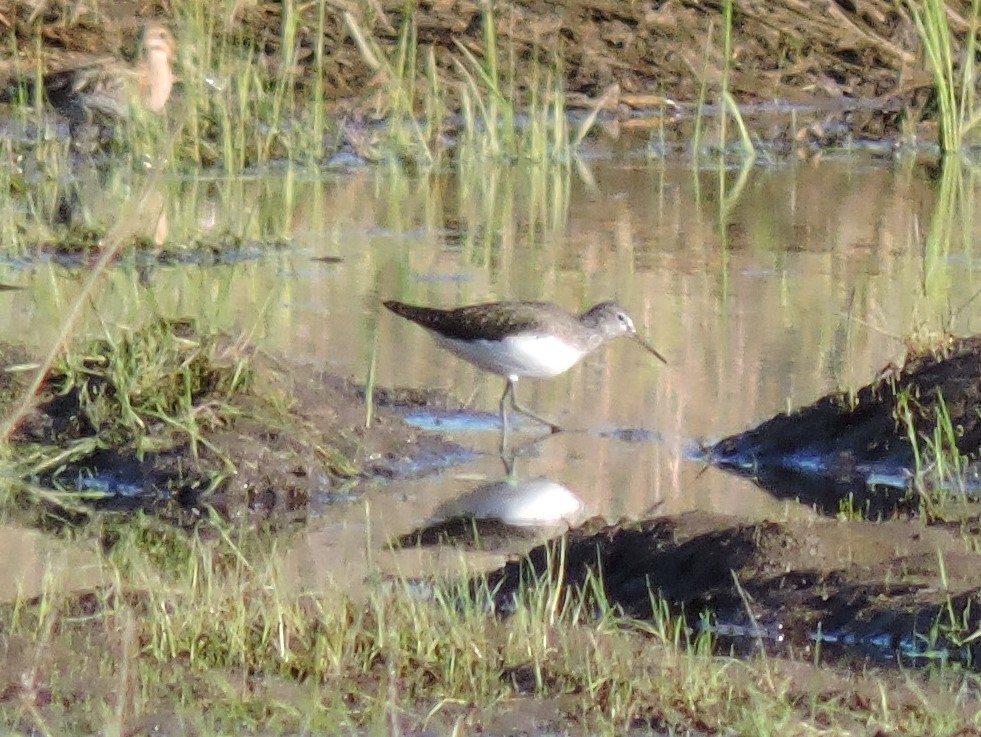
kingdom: Animalia
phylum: Chordata
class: Aves
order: Charadriiformes
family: Scolopacidae
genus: Tringa
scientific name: Tringa ochropus
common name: Green sandpiper
